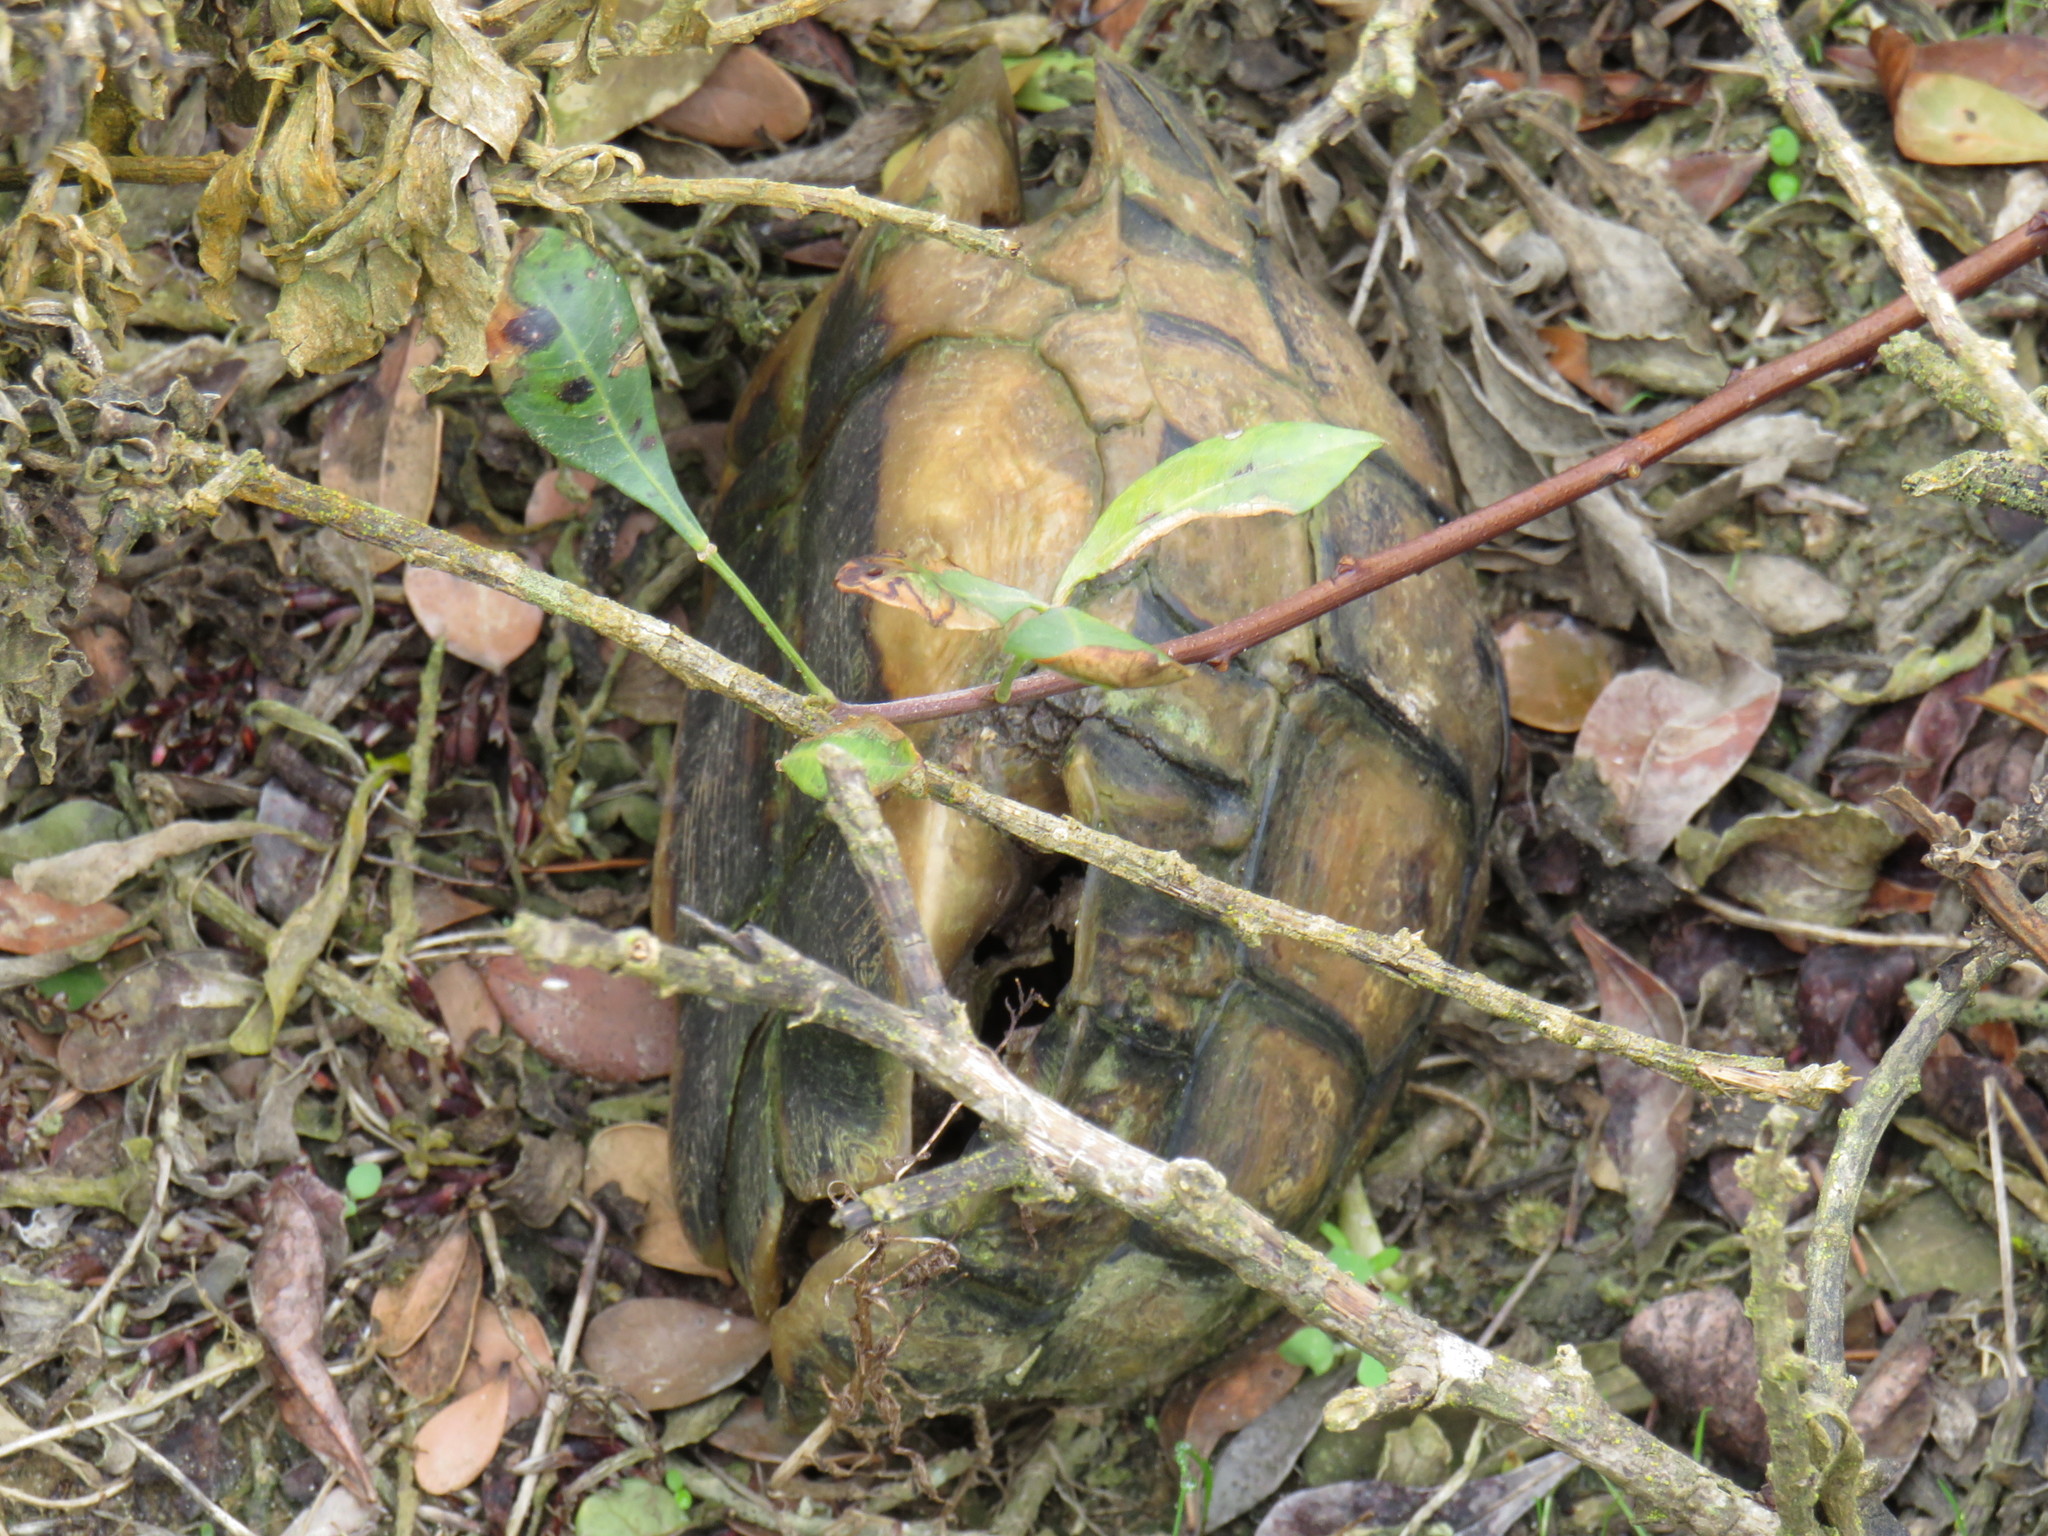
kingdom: Animalia
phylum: Chordata
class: Testudines
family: Testudinidae
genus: Chersina
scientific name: Chersina angulata
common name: South african bowsprit tortoise
